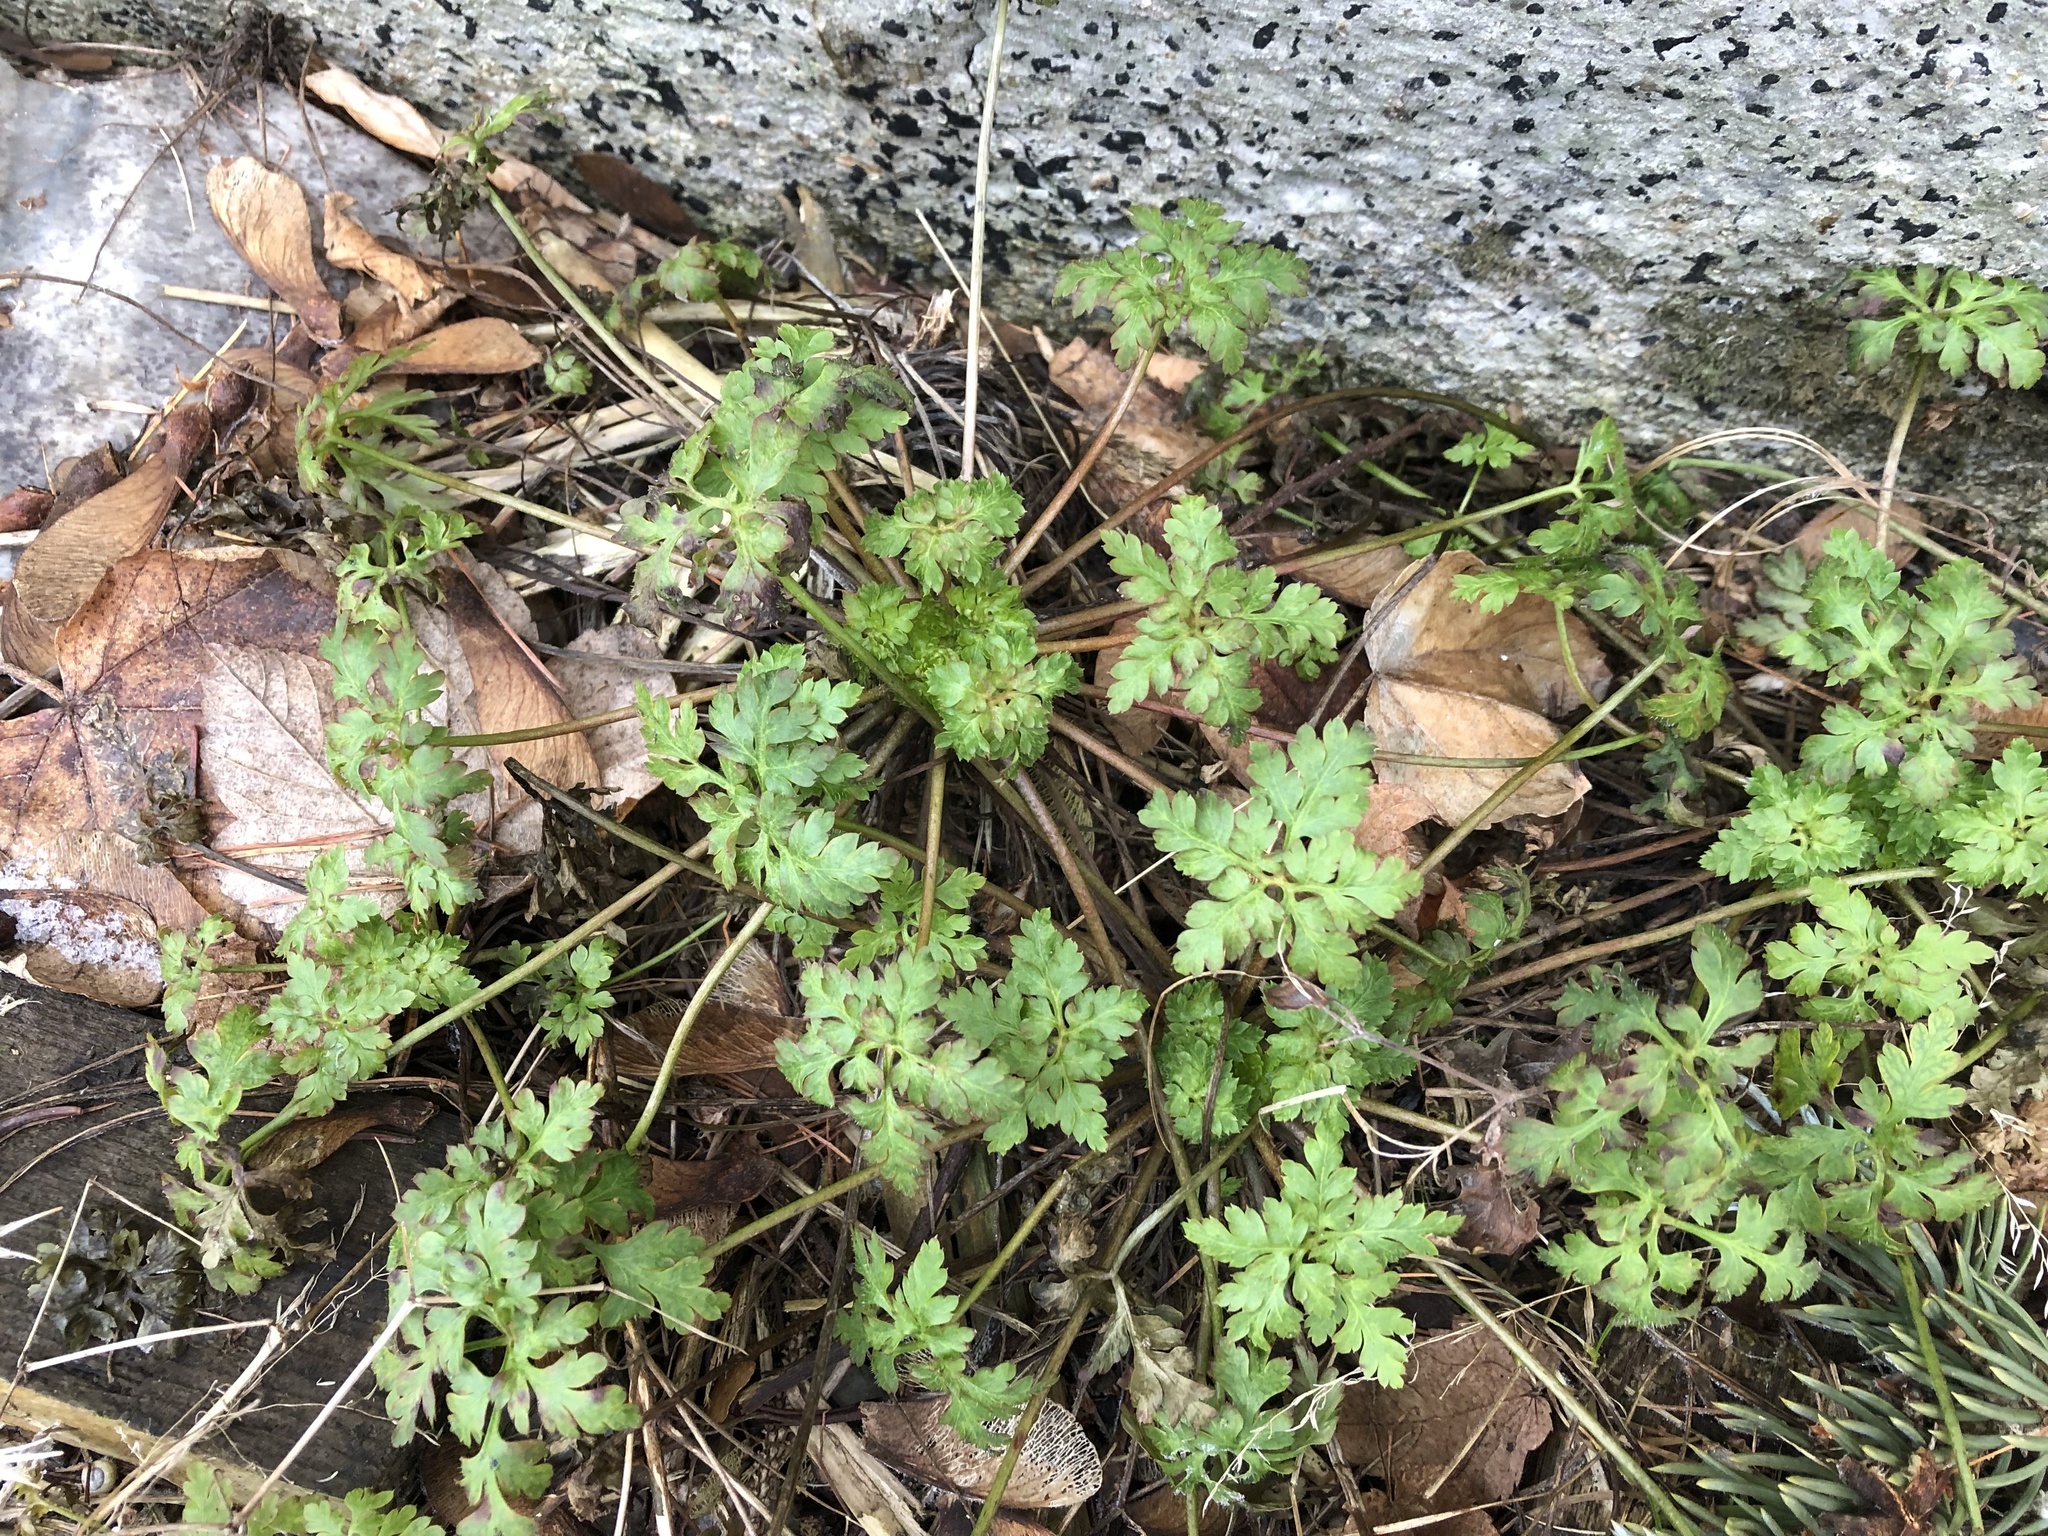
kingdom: Plantae
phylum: Tracheophyta
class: Magnoliopsida
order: Geraniales
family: Geraniaceae
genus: Geranium
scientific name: Geranium robertianum
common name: Herb-robert
